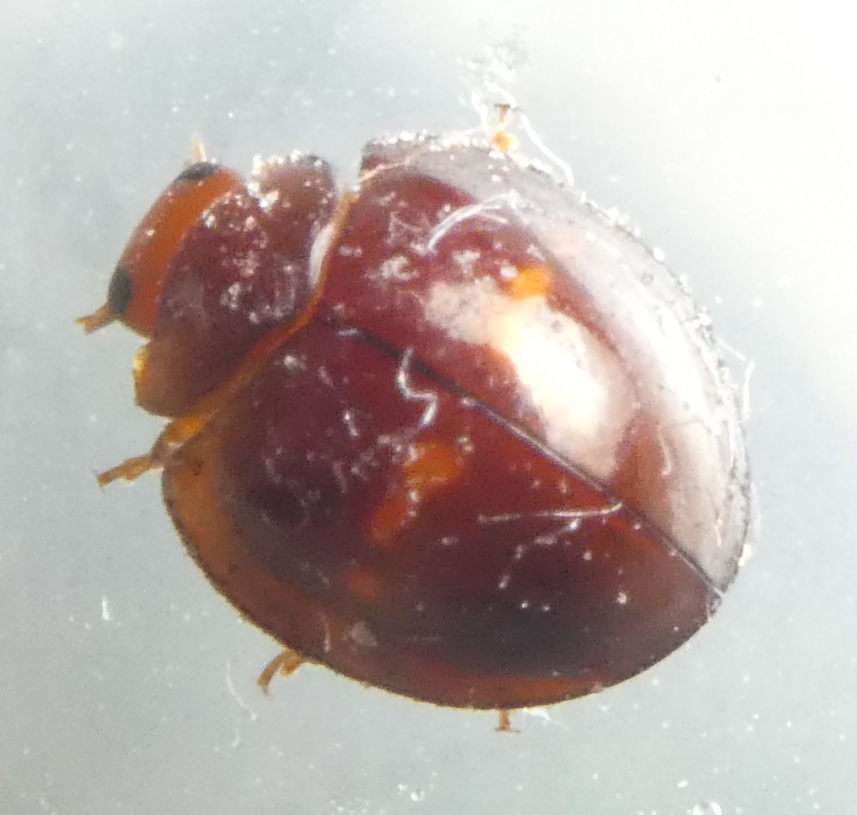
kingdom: Animalia
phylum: Arthropoda
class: Insecta
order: Coleoptera
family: Coccinellidae
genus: Chilocorus
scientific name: Chilocorus bipustulatus
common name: Heather ladybird
